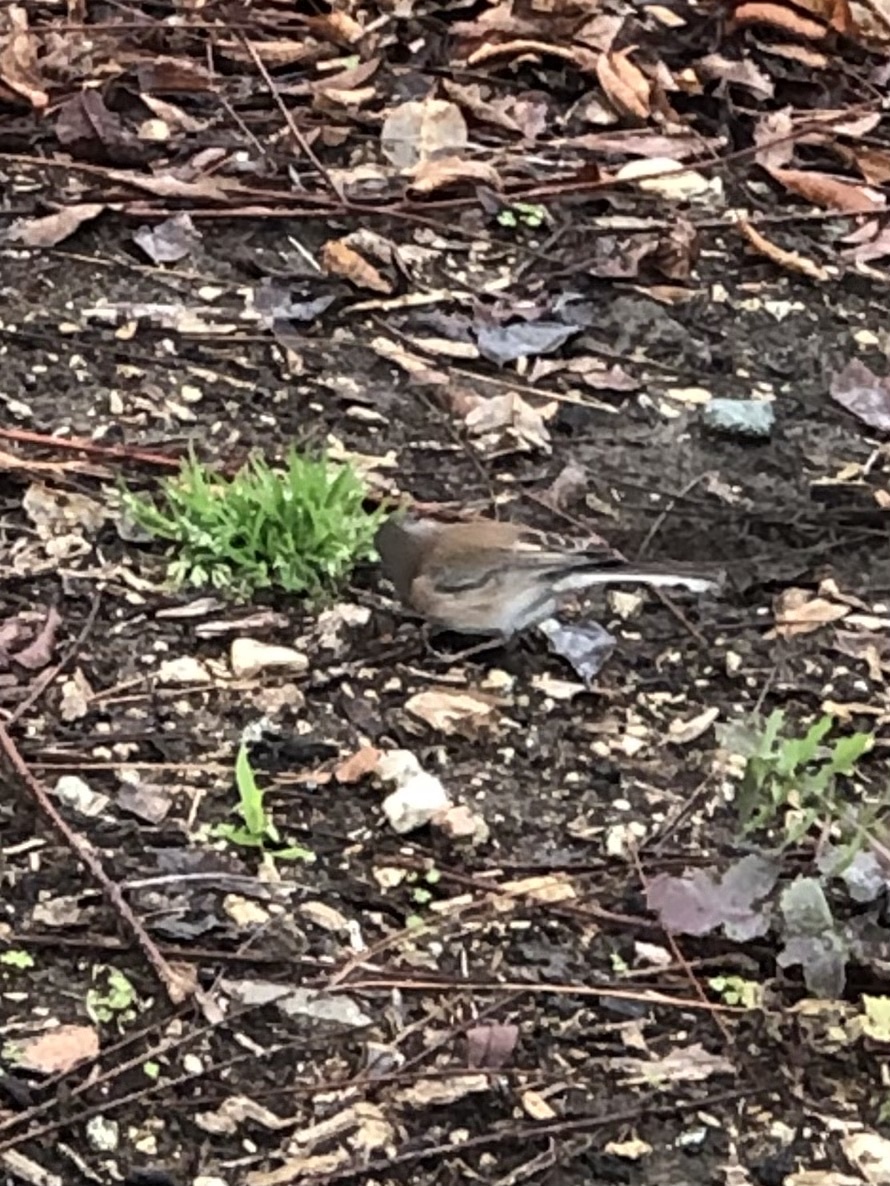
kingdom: Animalia
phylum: Chordata
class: Aves
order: Passeriformes
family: Passerellidae
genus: Junco
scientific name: Junco hyemalis
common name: Dark-eyed junco
